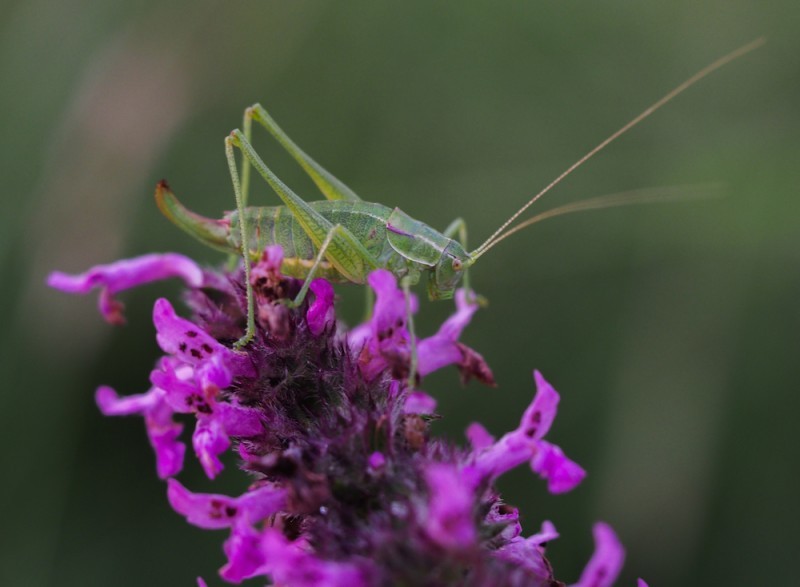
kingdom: Animalia
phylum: Arthropoda
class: Insecta
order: Orthoptera
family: Tettigoniidae
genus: Poecilimon
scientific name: Poecilimon intermedius
